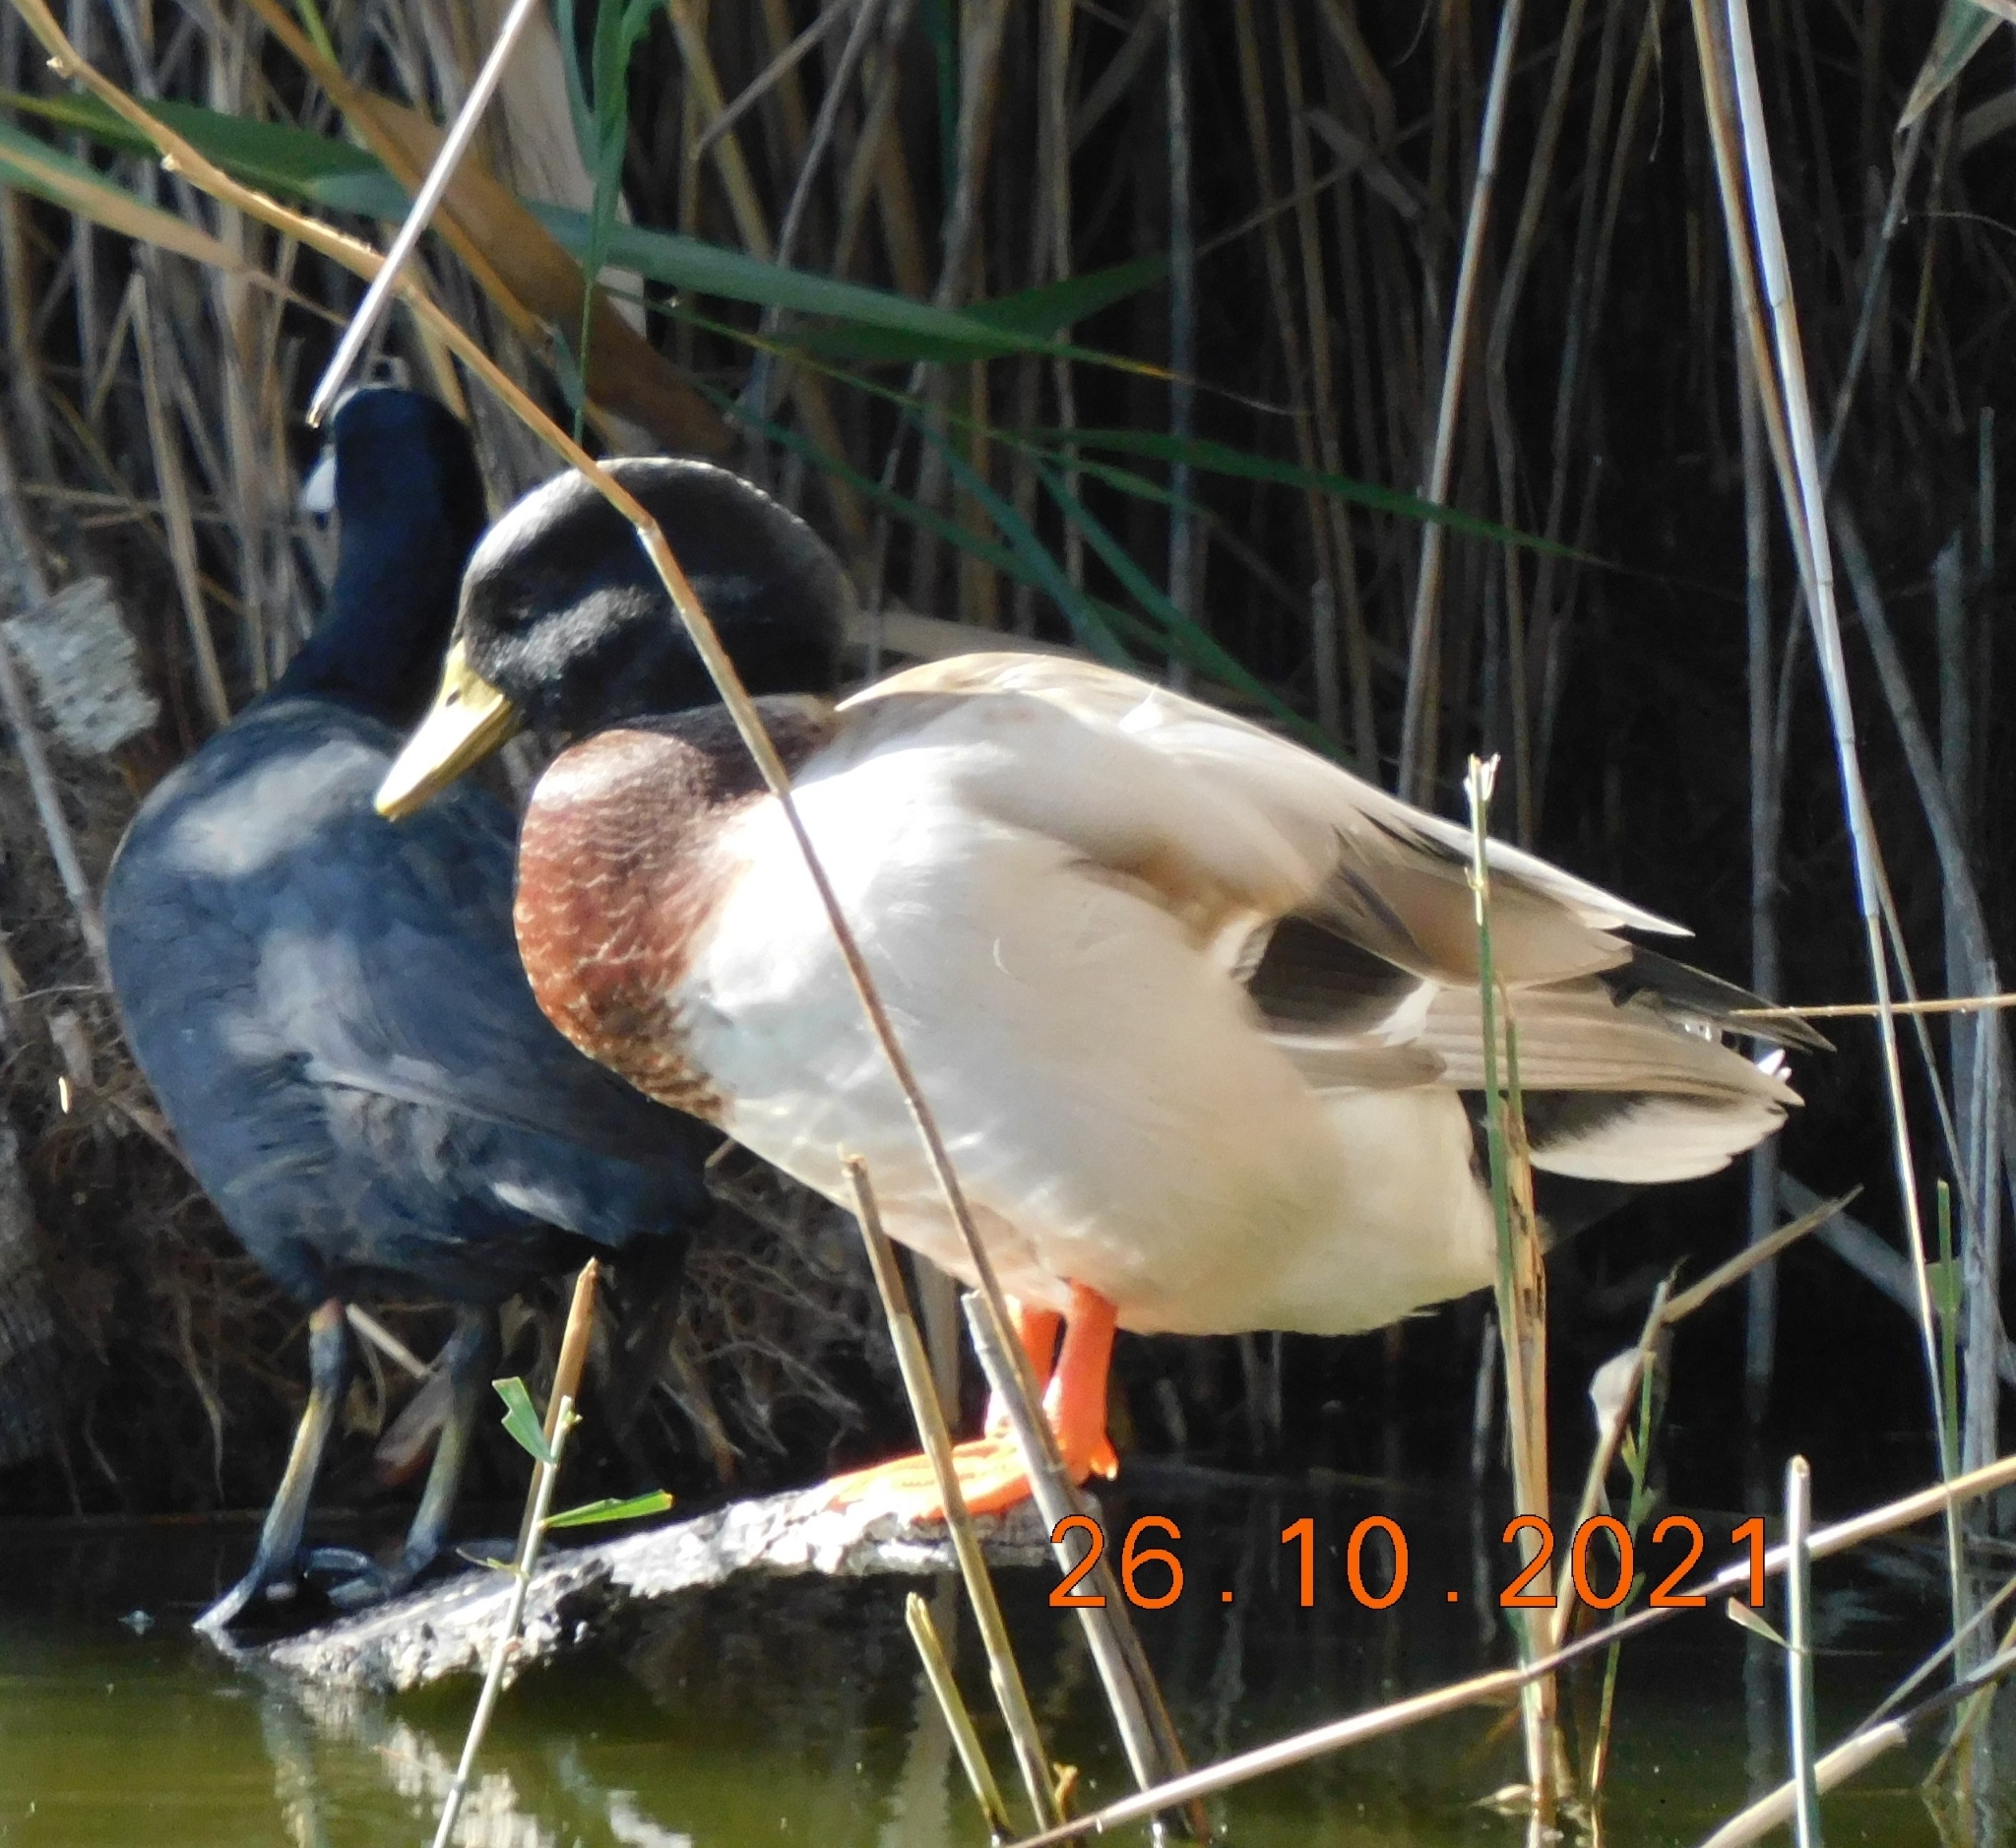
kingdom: Animalia
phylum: Chordata
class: Aves
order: Anseriformes
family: Anatidae
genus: Anas
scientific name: Anas platyrhynchos
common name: Mallard
